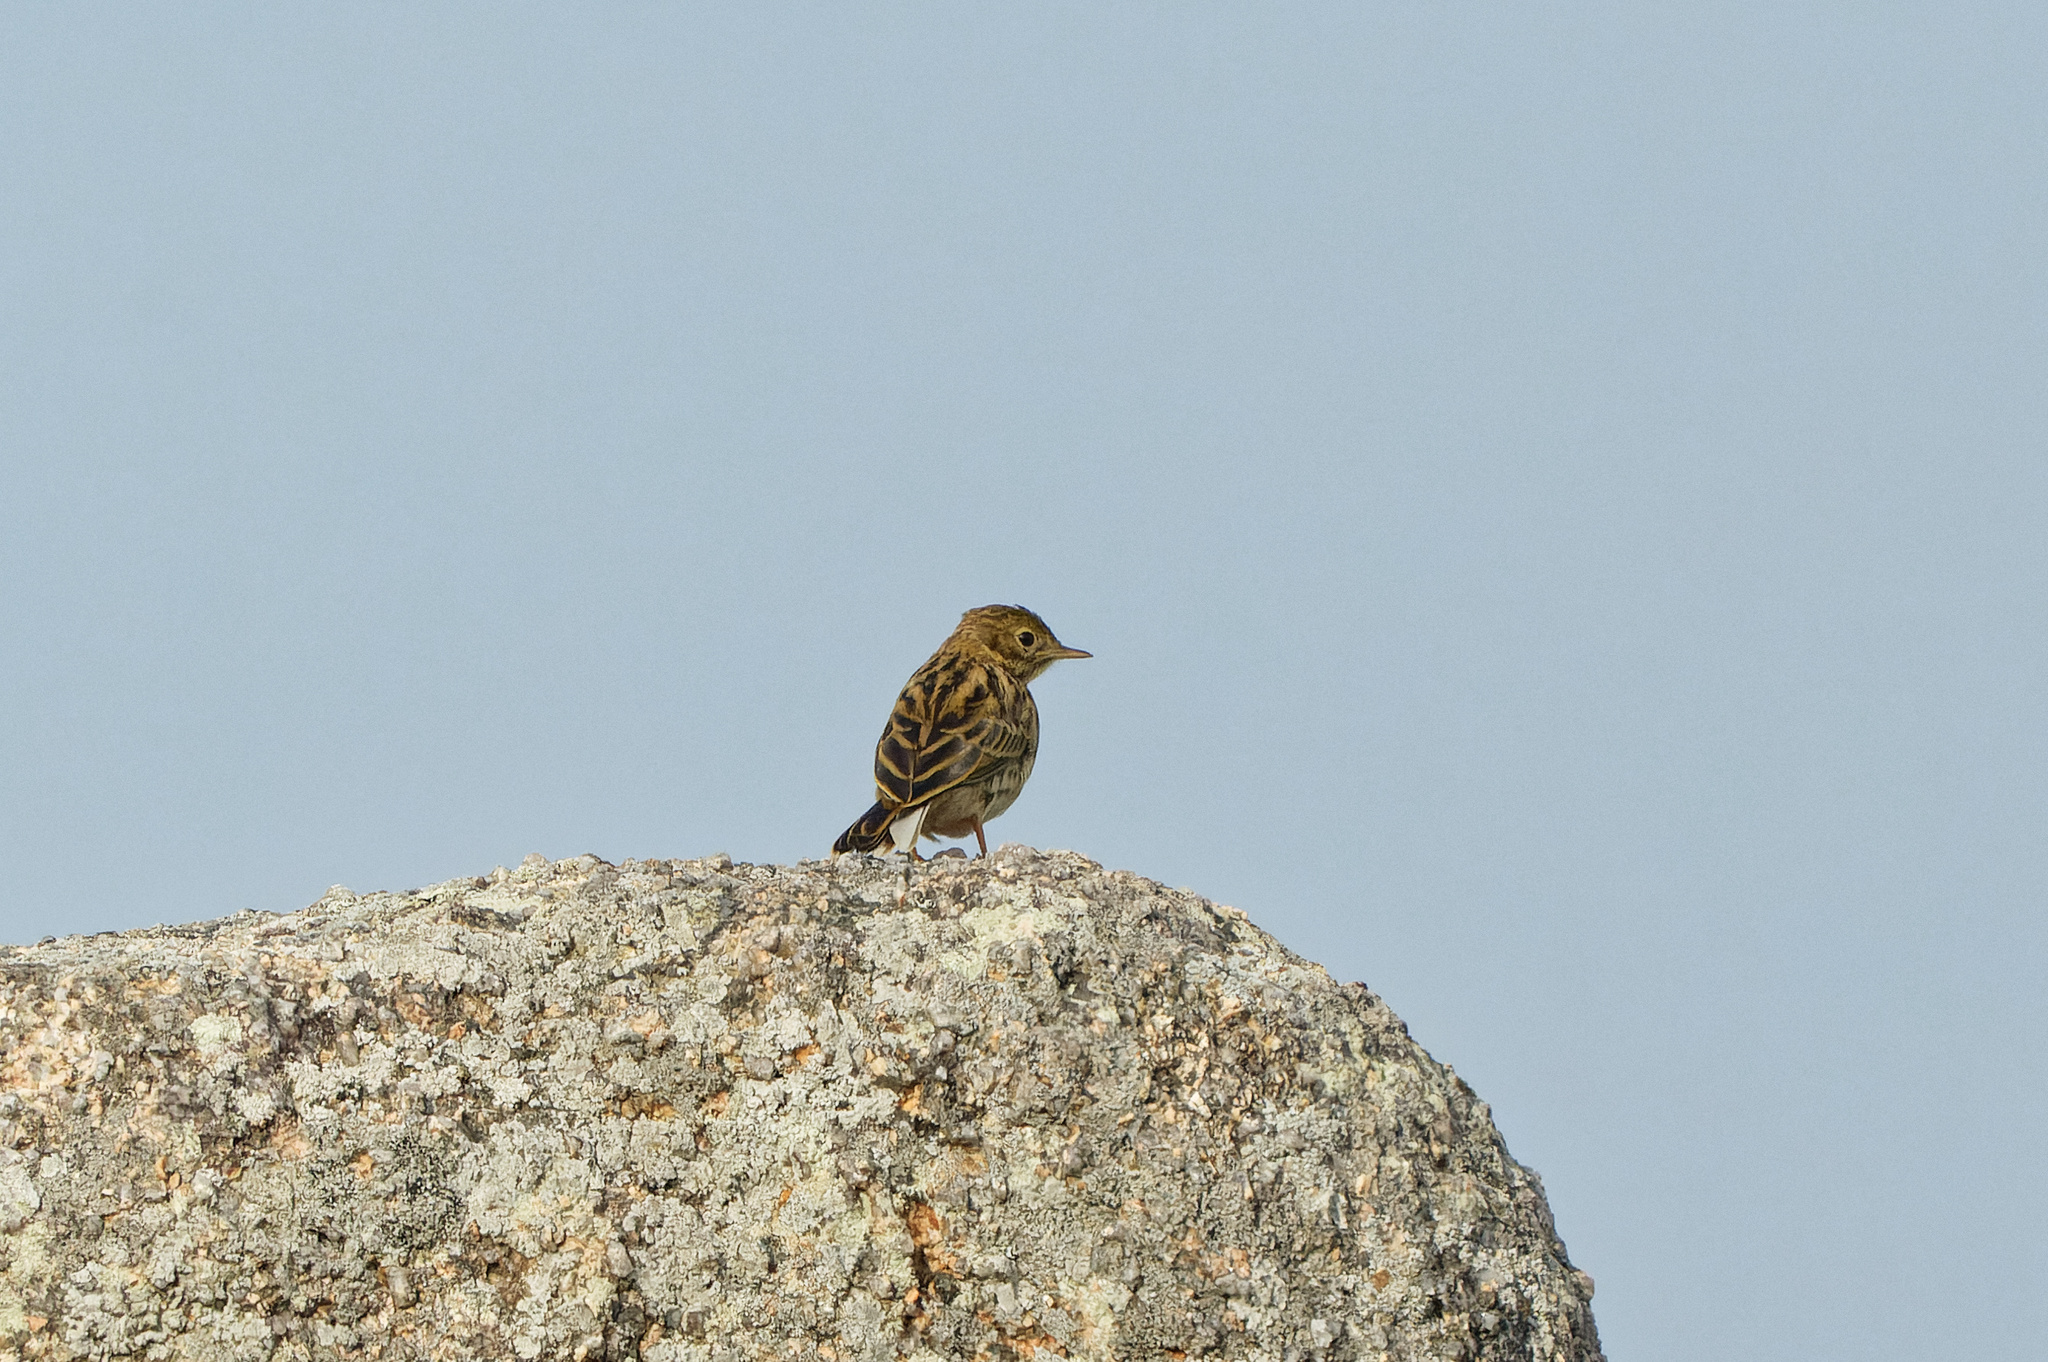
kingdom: Animalia
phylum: Chordata
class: Aves
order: Passeriformes
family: Motacillidae
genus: Anthus
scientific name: Anthus pratensis
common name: Meadow pipit
